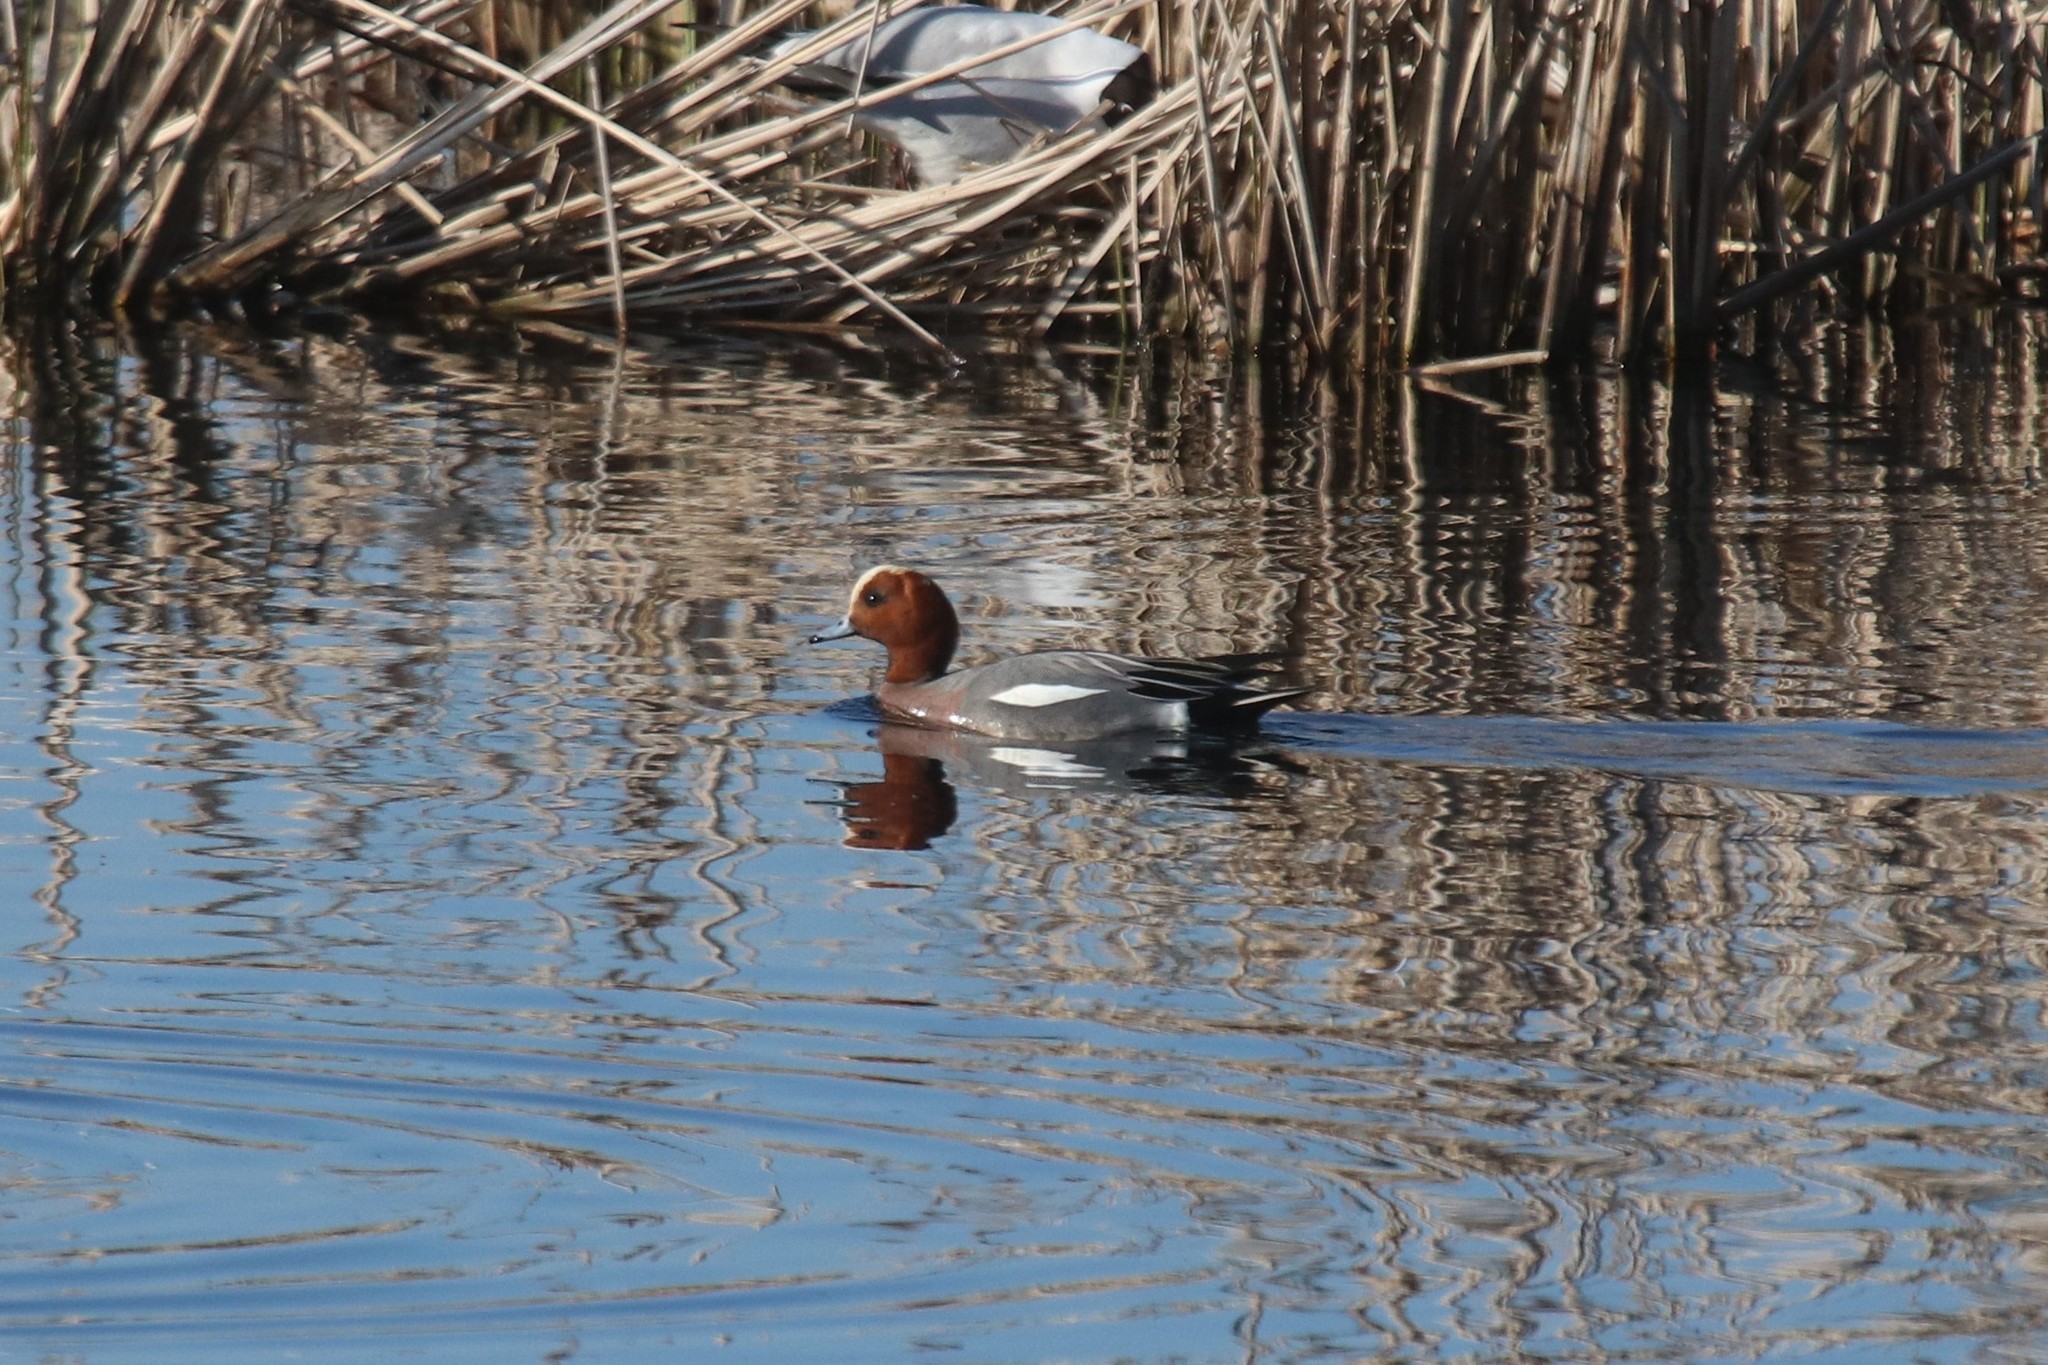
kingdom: Animalia
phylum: Chordata
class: Aves
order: Anseriformes
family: Anatidae
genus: Mareca
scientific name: Mareca penelope
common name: Eurasian wigeon
